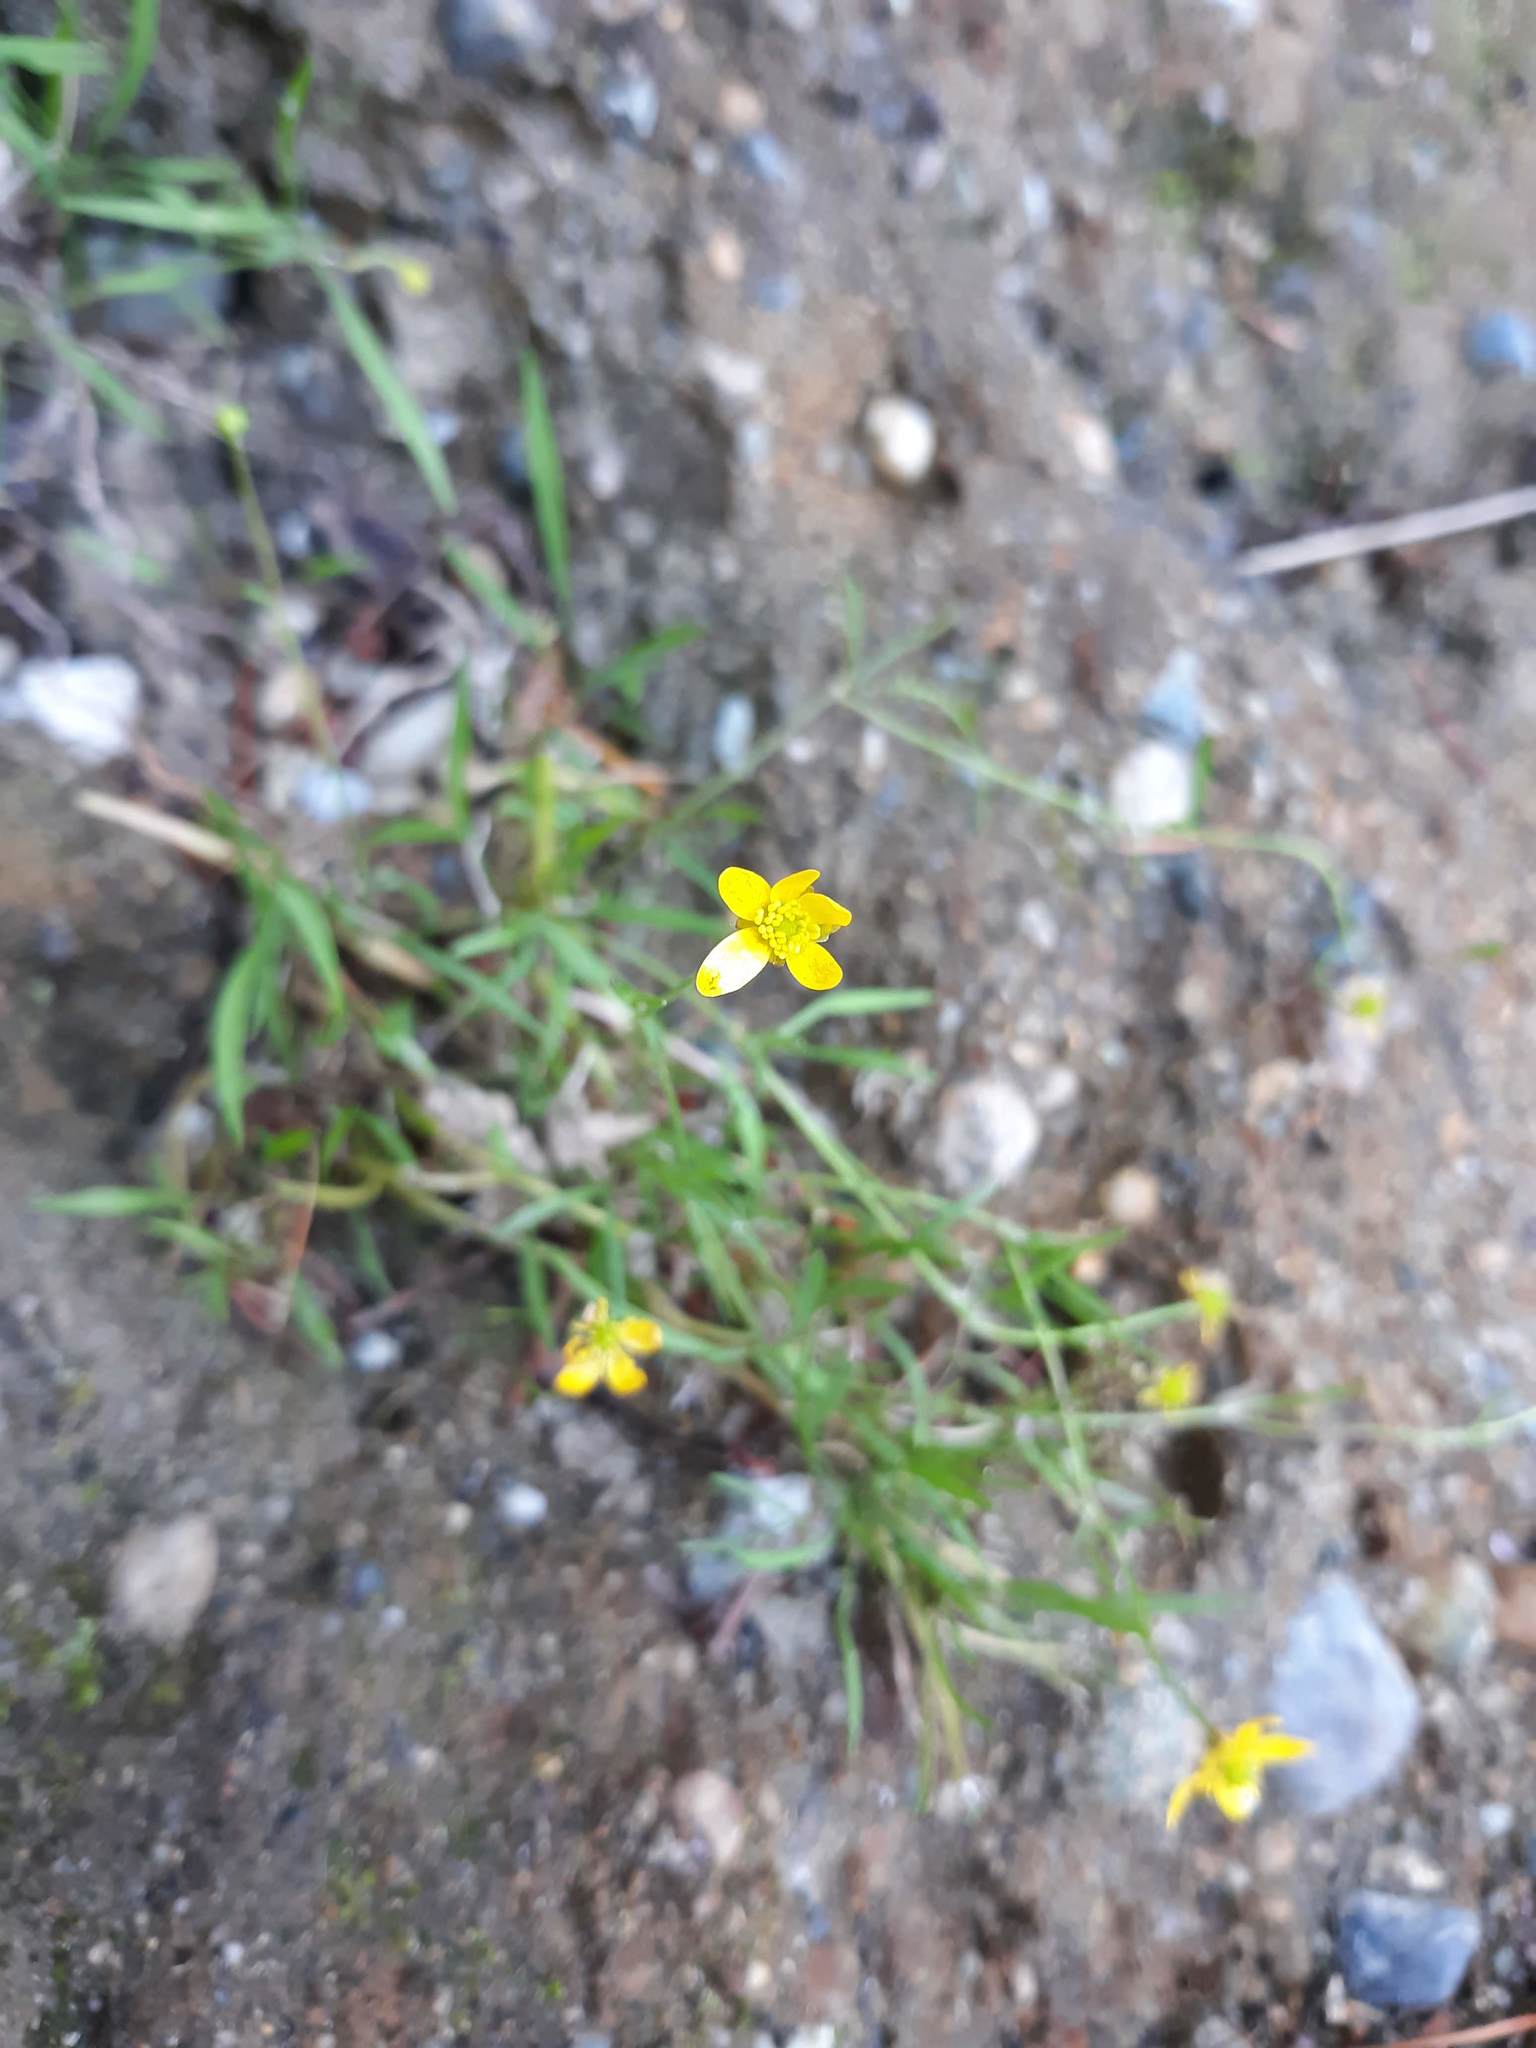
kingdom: Plantae
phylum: Tracheophyta
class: Magnoliopsida
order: Ranunculales
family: Ranunculaceae
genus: Ranunculus
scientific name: Ranunculus flammula
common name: Lesser spearwort
